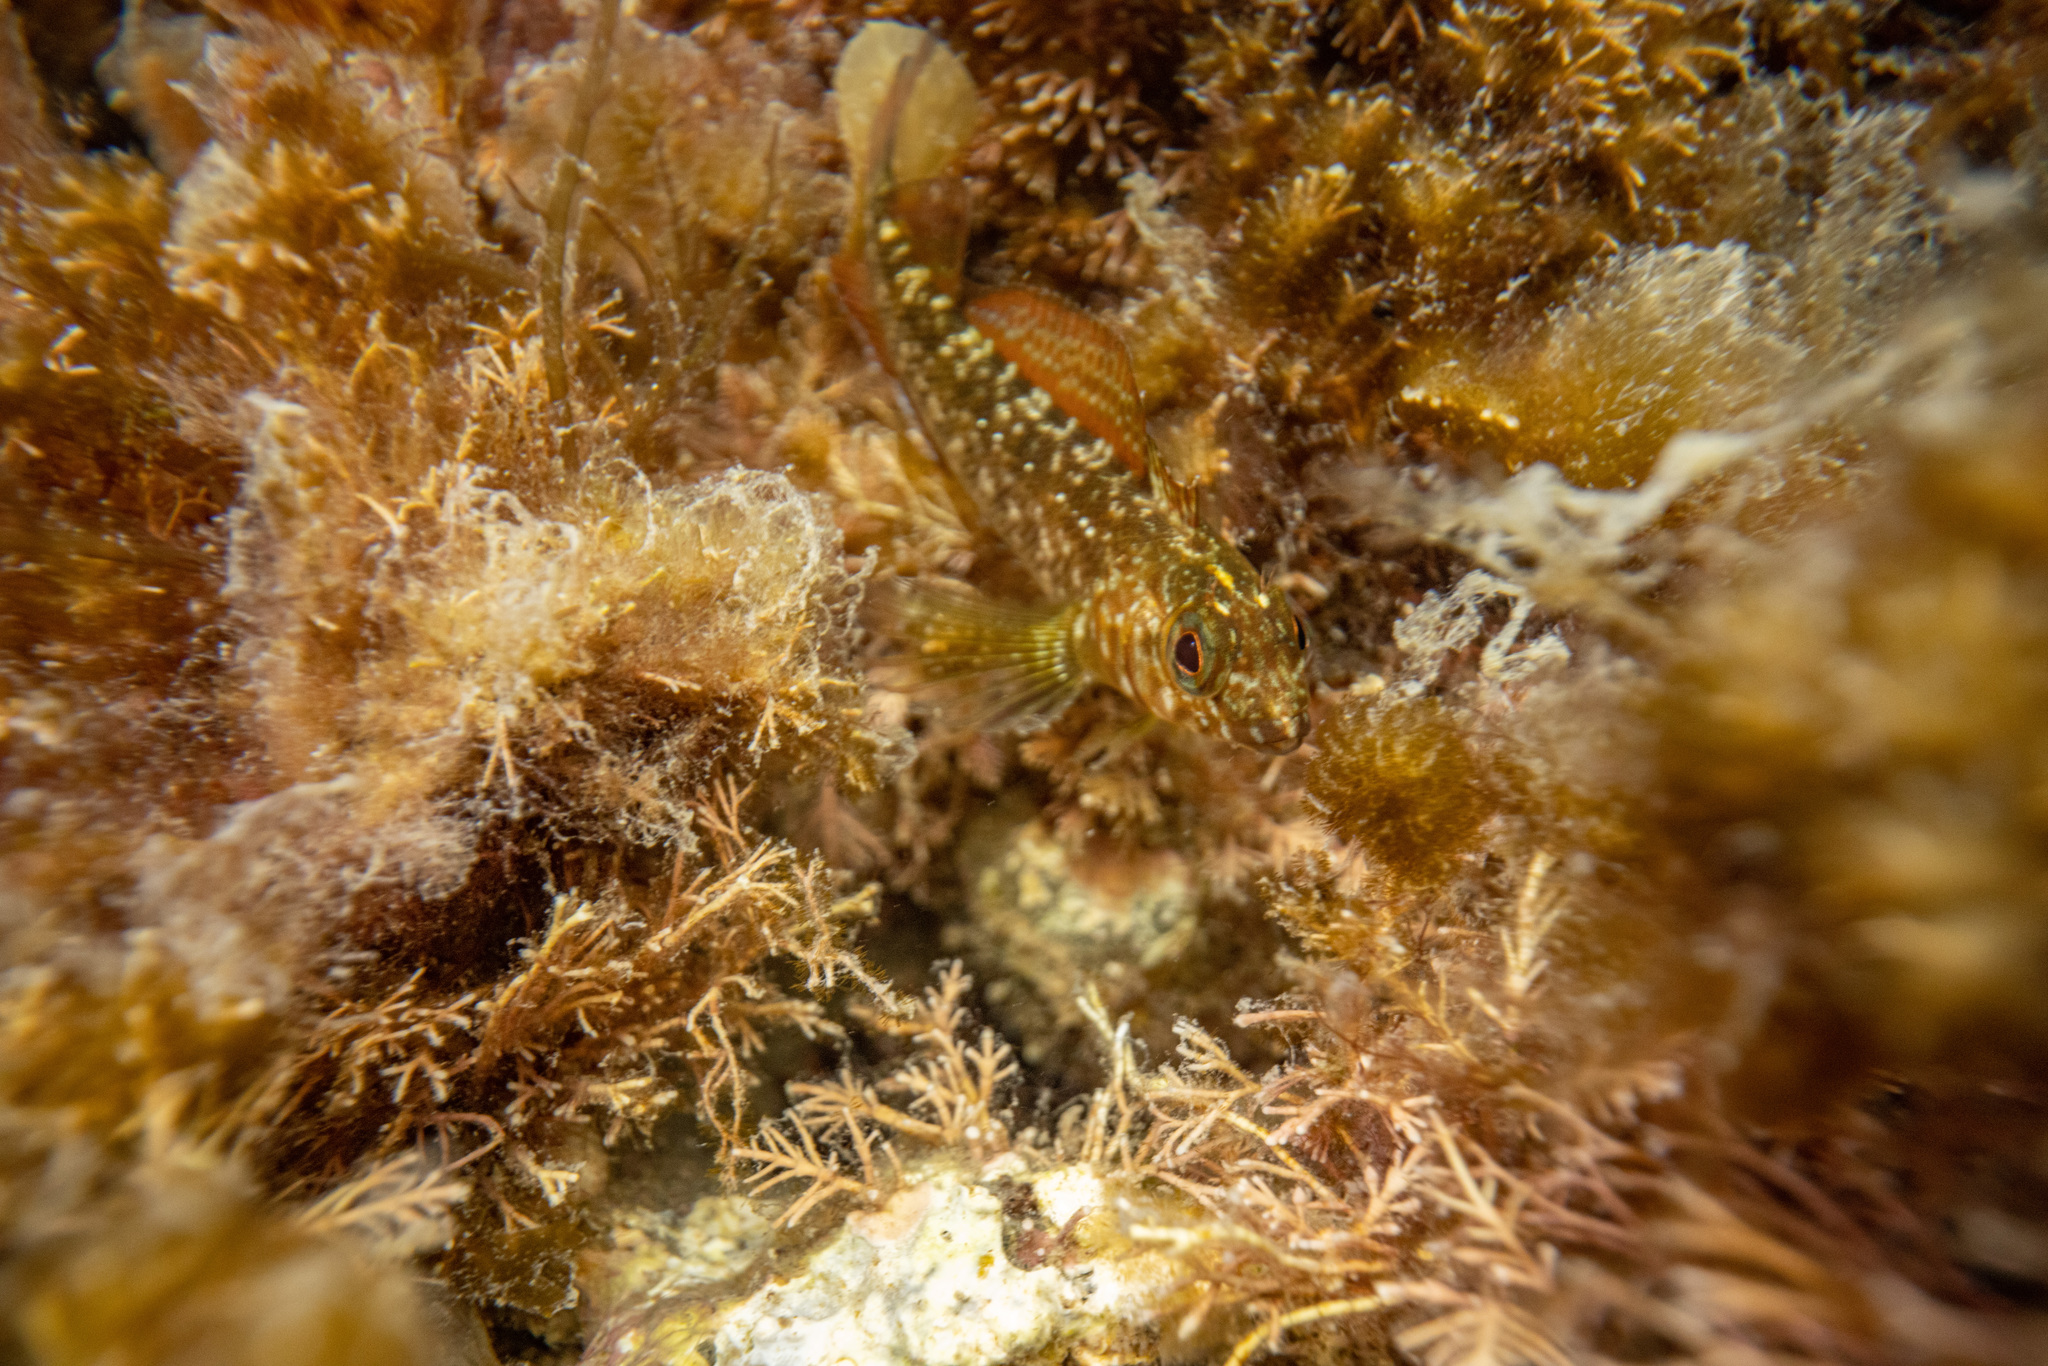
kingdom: Animalia
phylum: Chordata
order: Perciformes
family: Tripterygiidae
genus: Forsterygion
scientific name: Forsterygion lapillum
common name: Common triplefin
